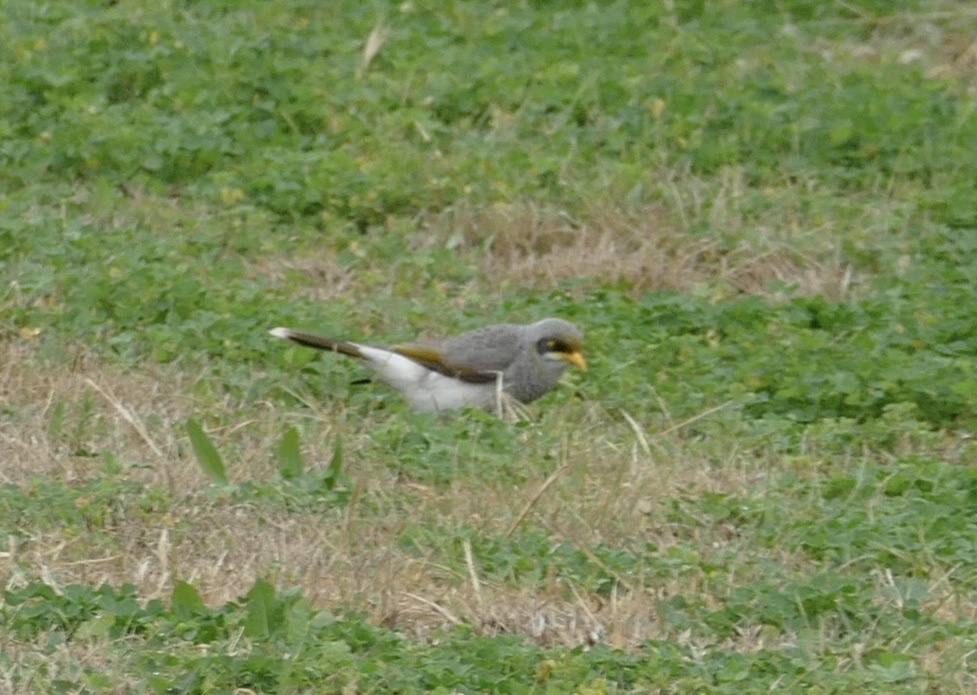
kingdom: Animalia
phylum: Chordata
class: Aves
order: Passeriformes
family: Meliphagidae
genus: Manorina
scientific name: Manorina flavigula
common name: Yellow-throated miner
